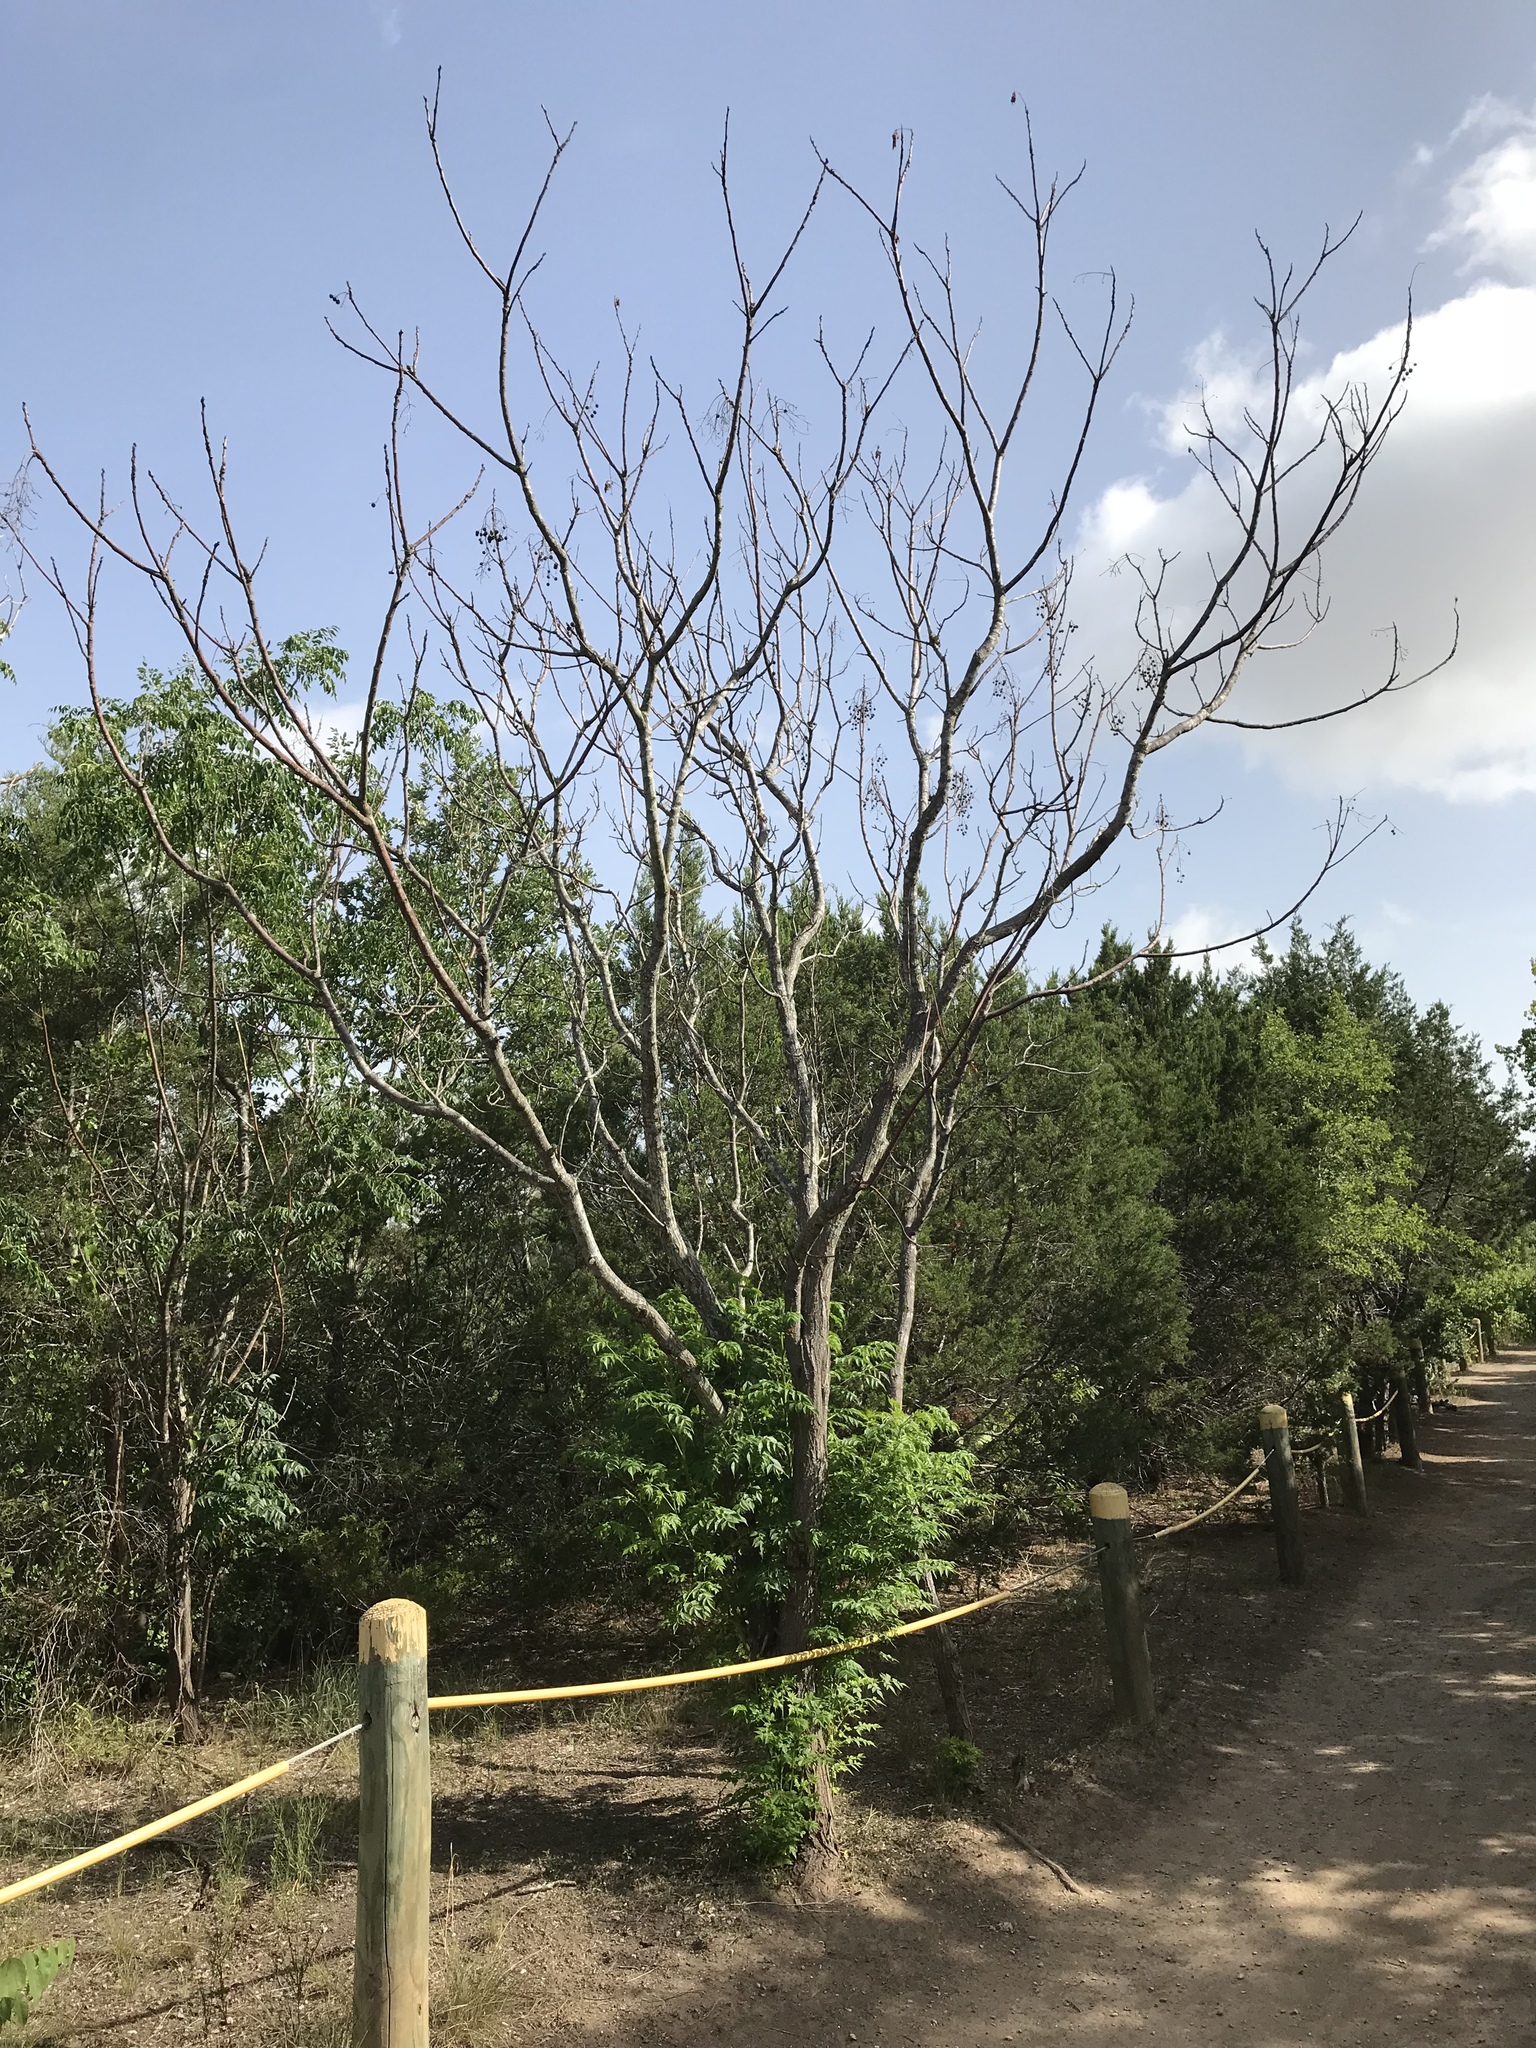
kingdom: Plantae
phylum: Tracheophyta
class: Magnoliopsida
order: Sapindales
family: Meliaceae
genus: Melia
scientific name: Melia azedarach
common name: Chinaberrytree
